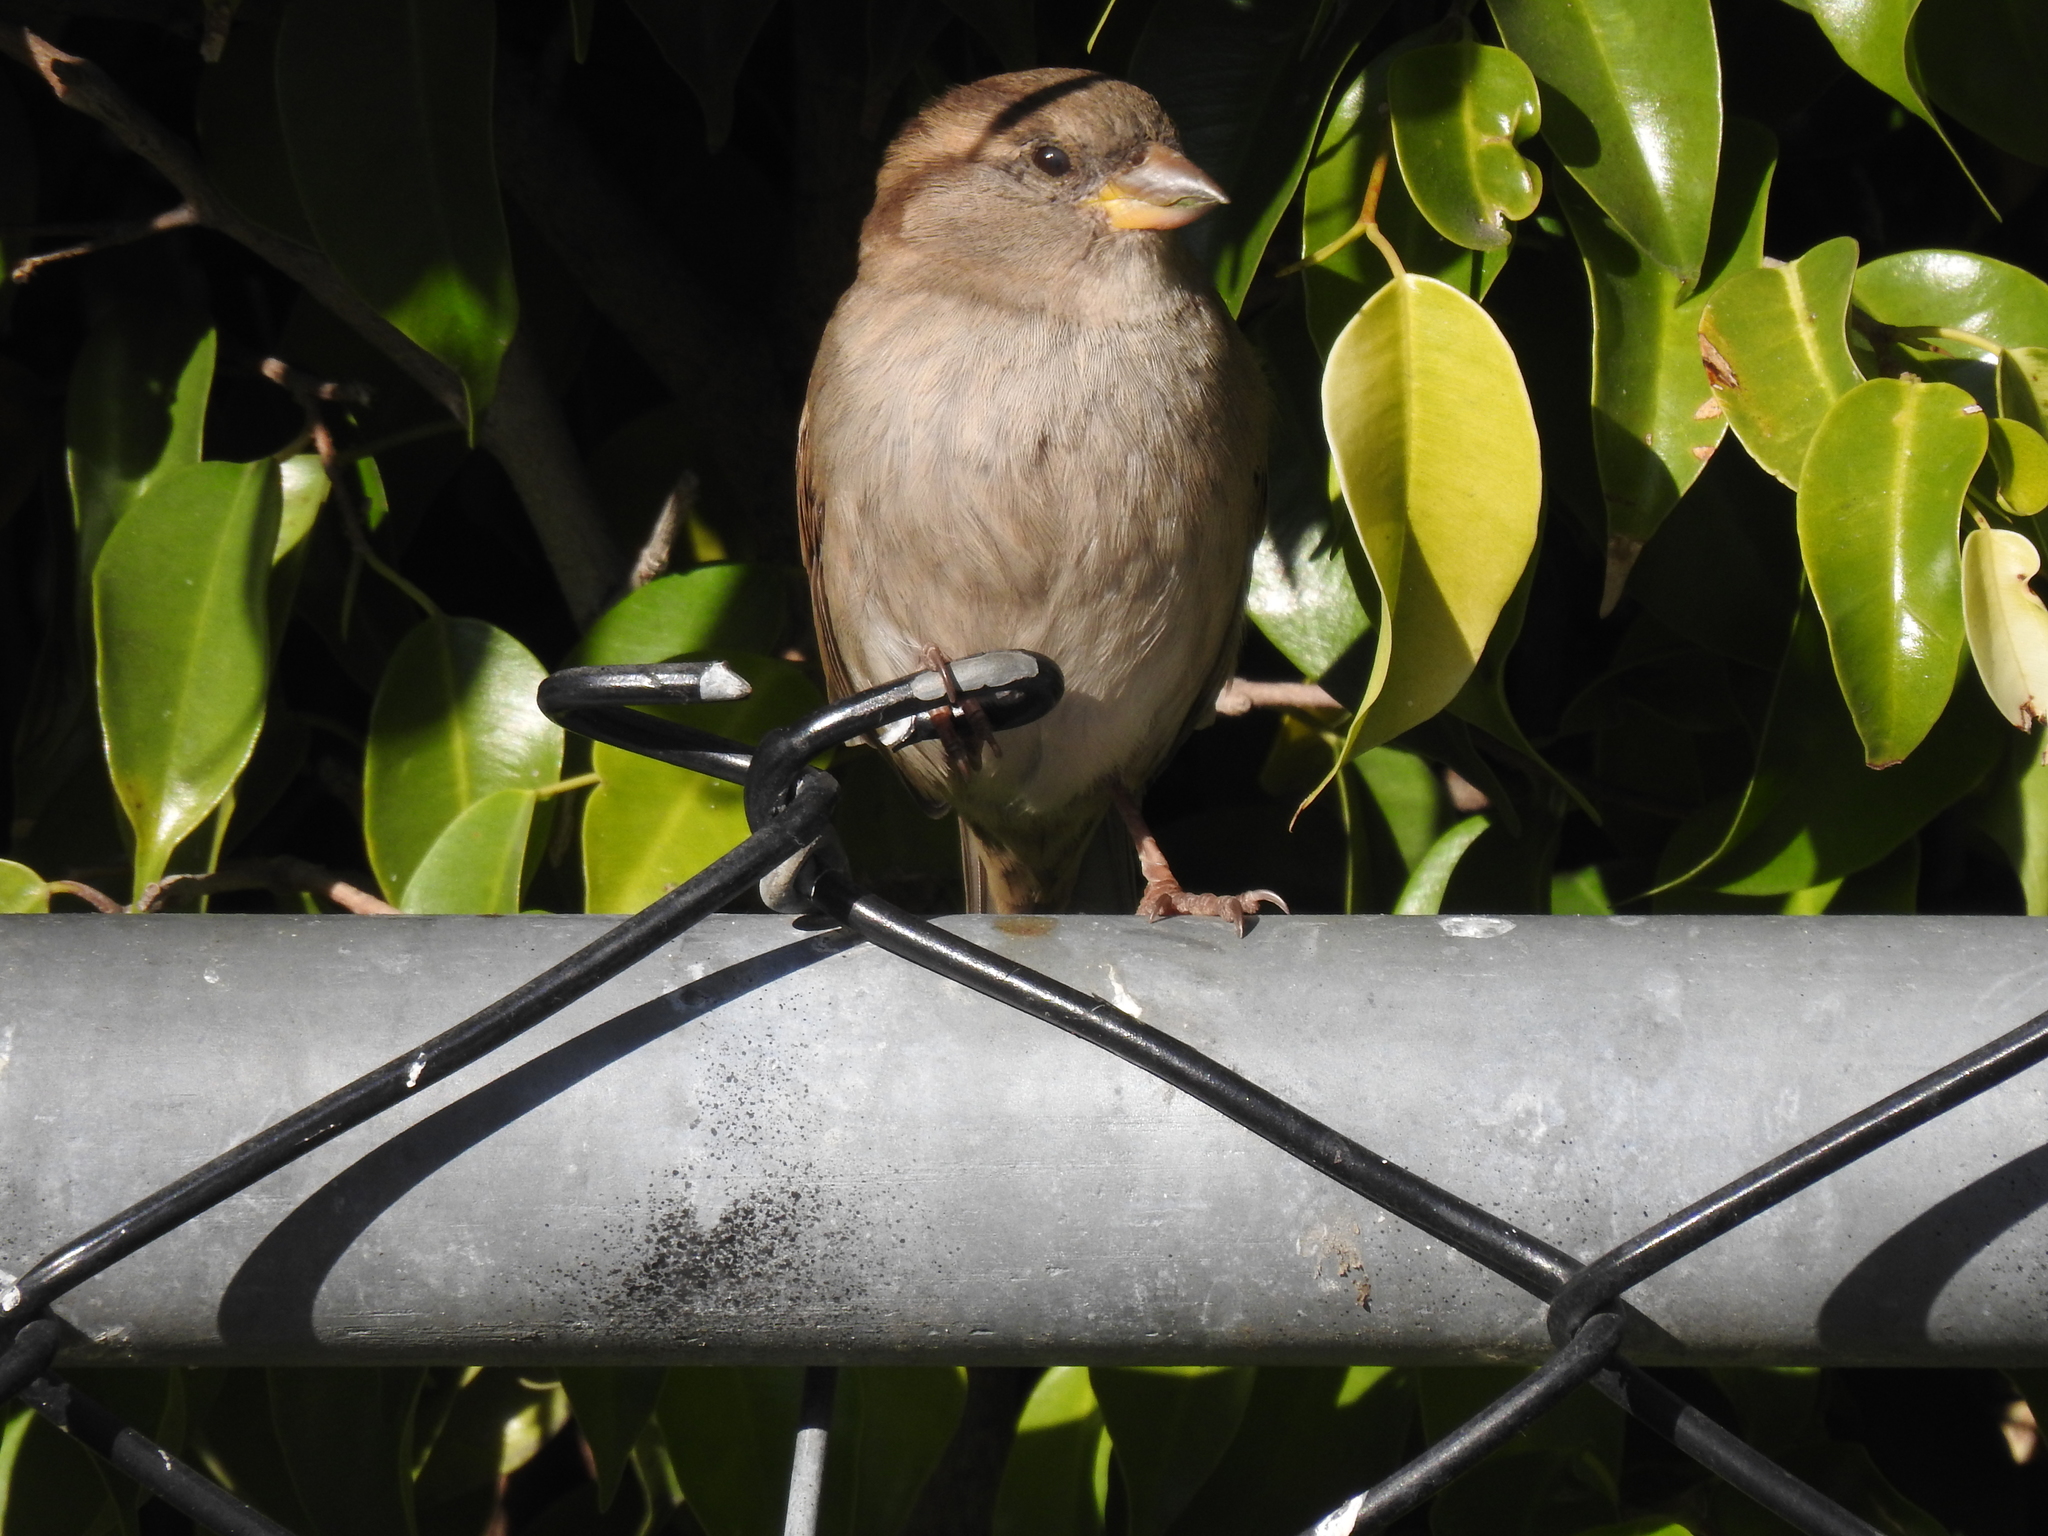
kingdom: Animalia
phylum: Chordata
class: Aves
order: Passeriformes
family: Passeridae
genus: Passer
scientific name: Passer domesticus
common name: House sparrow
